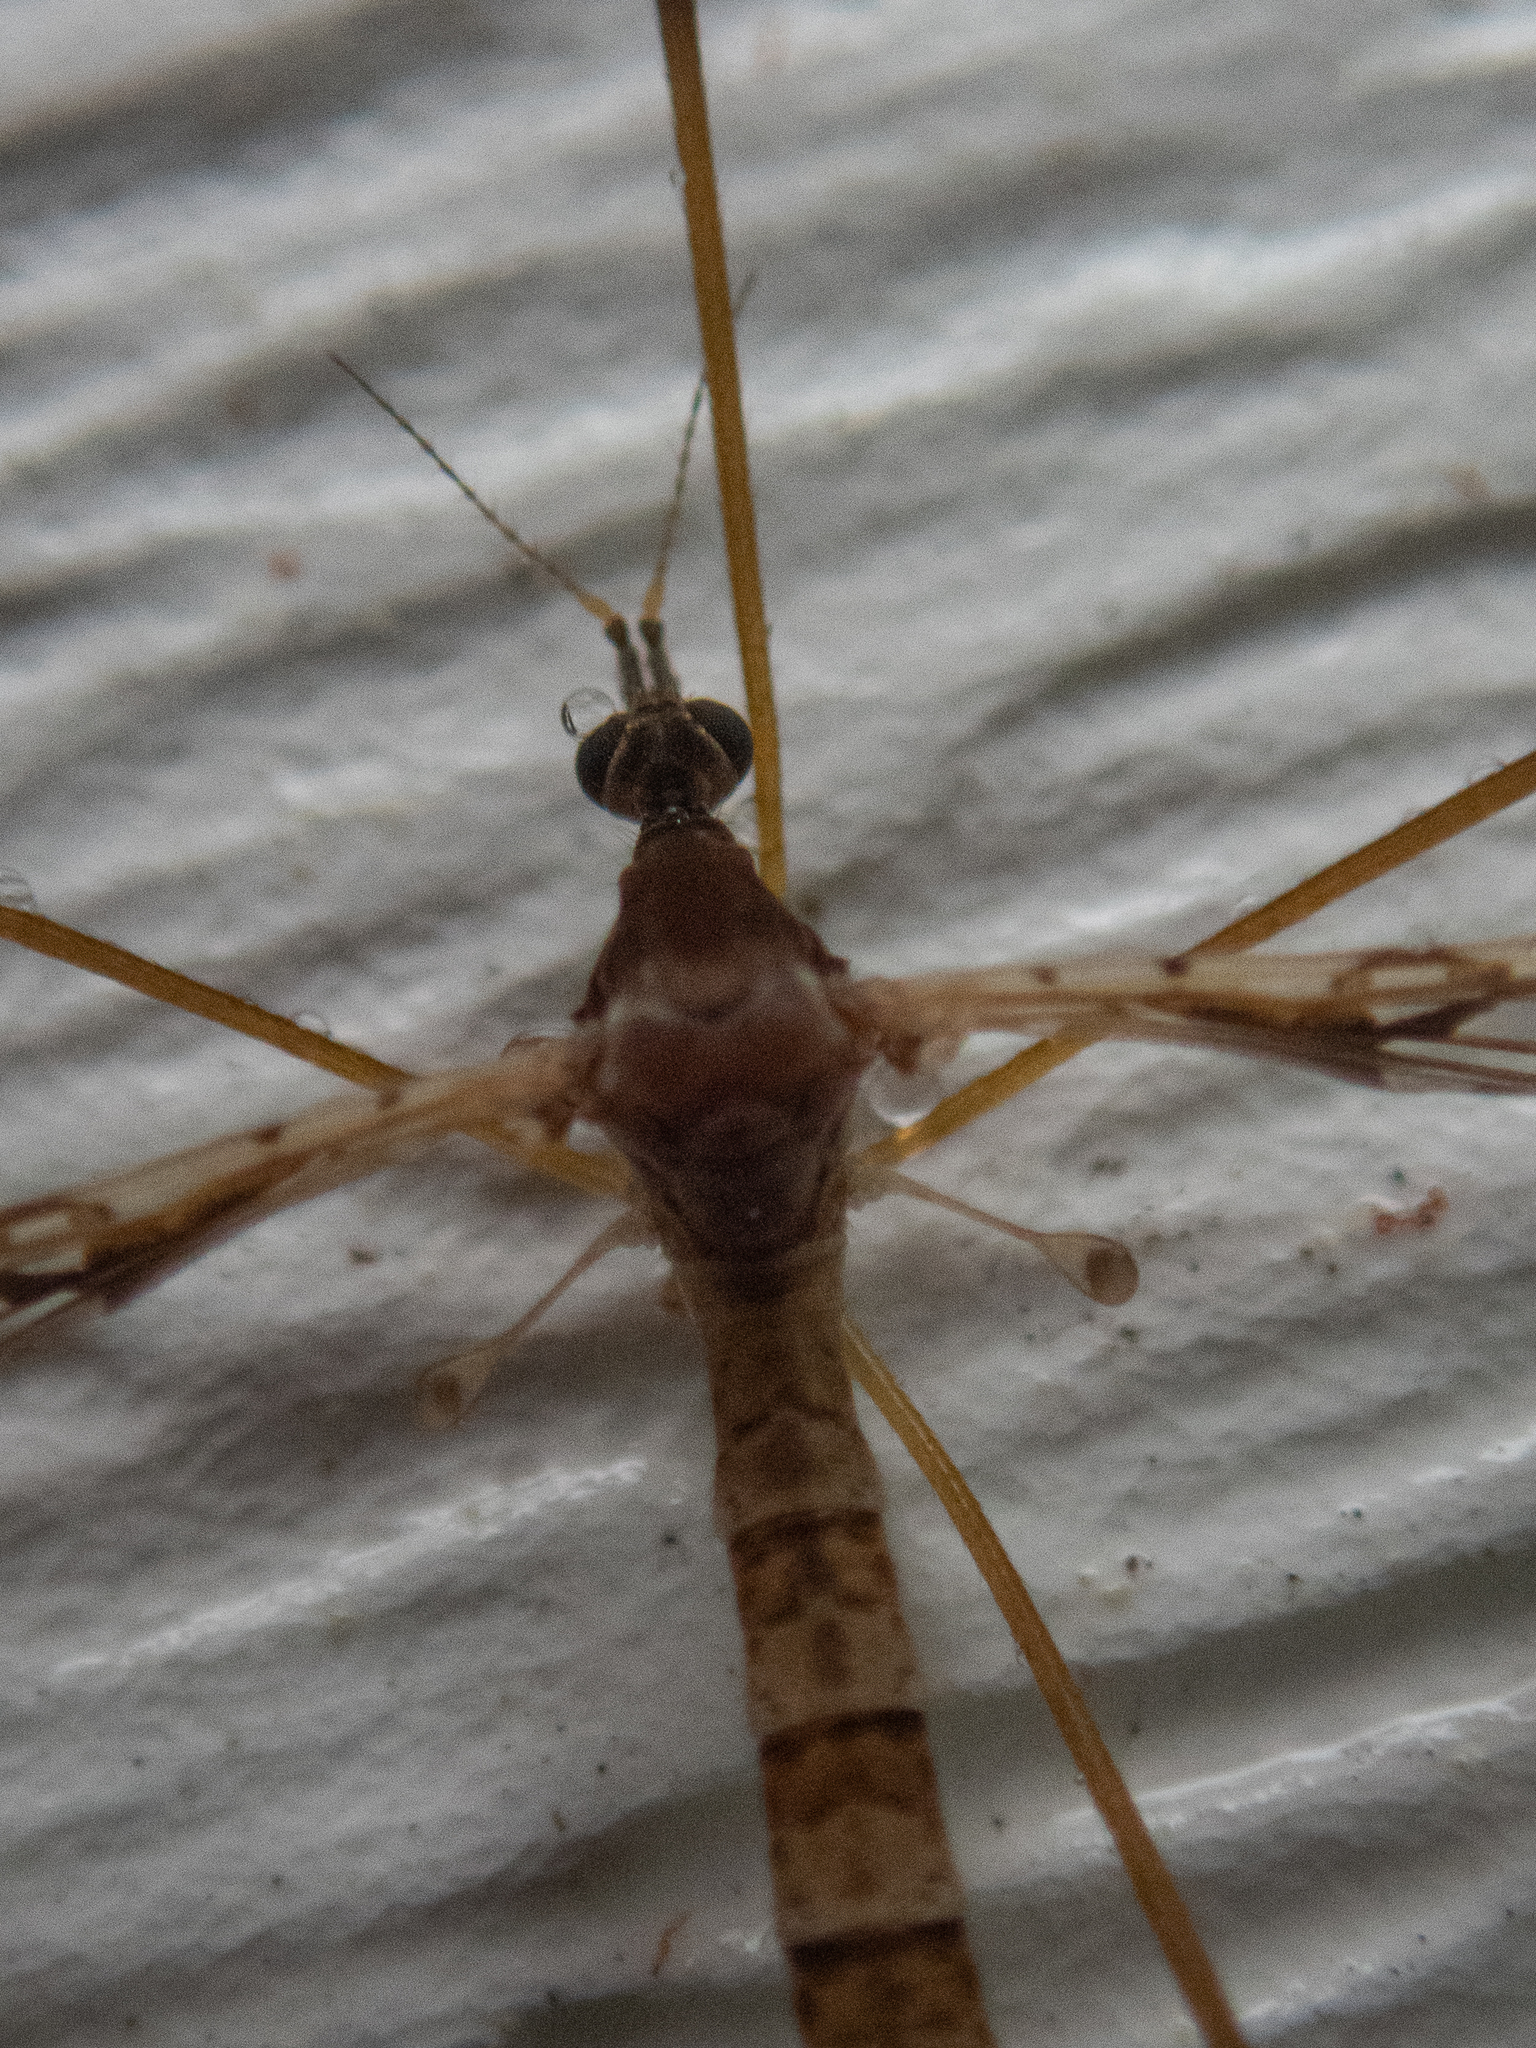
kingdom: Animalia
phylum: Arthropoda
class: Insecta
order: Diptera
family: Limoniidae
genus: Epiphragma
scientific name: Epiphragma solatrix
